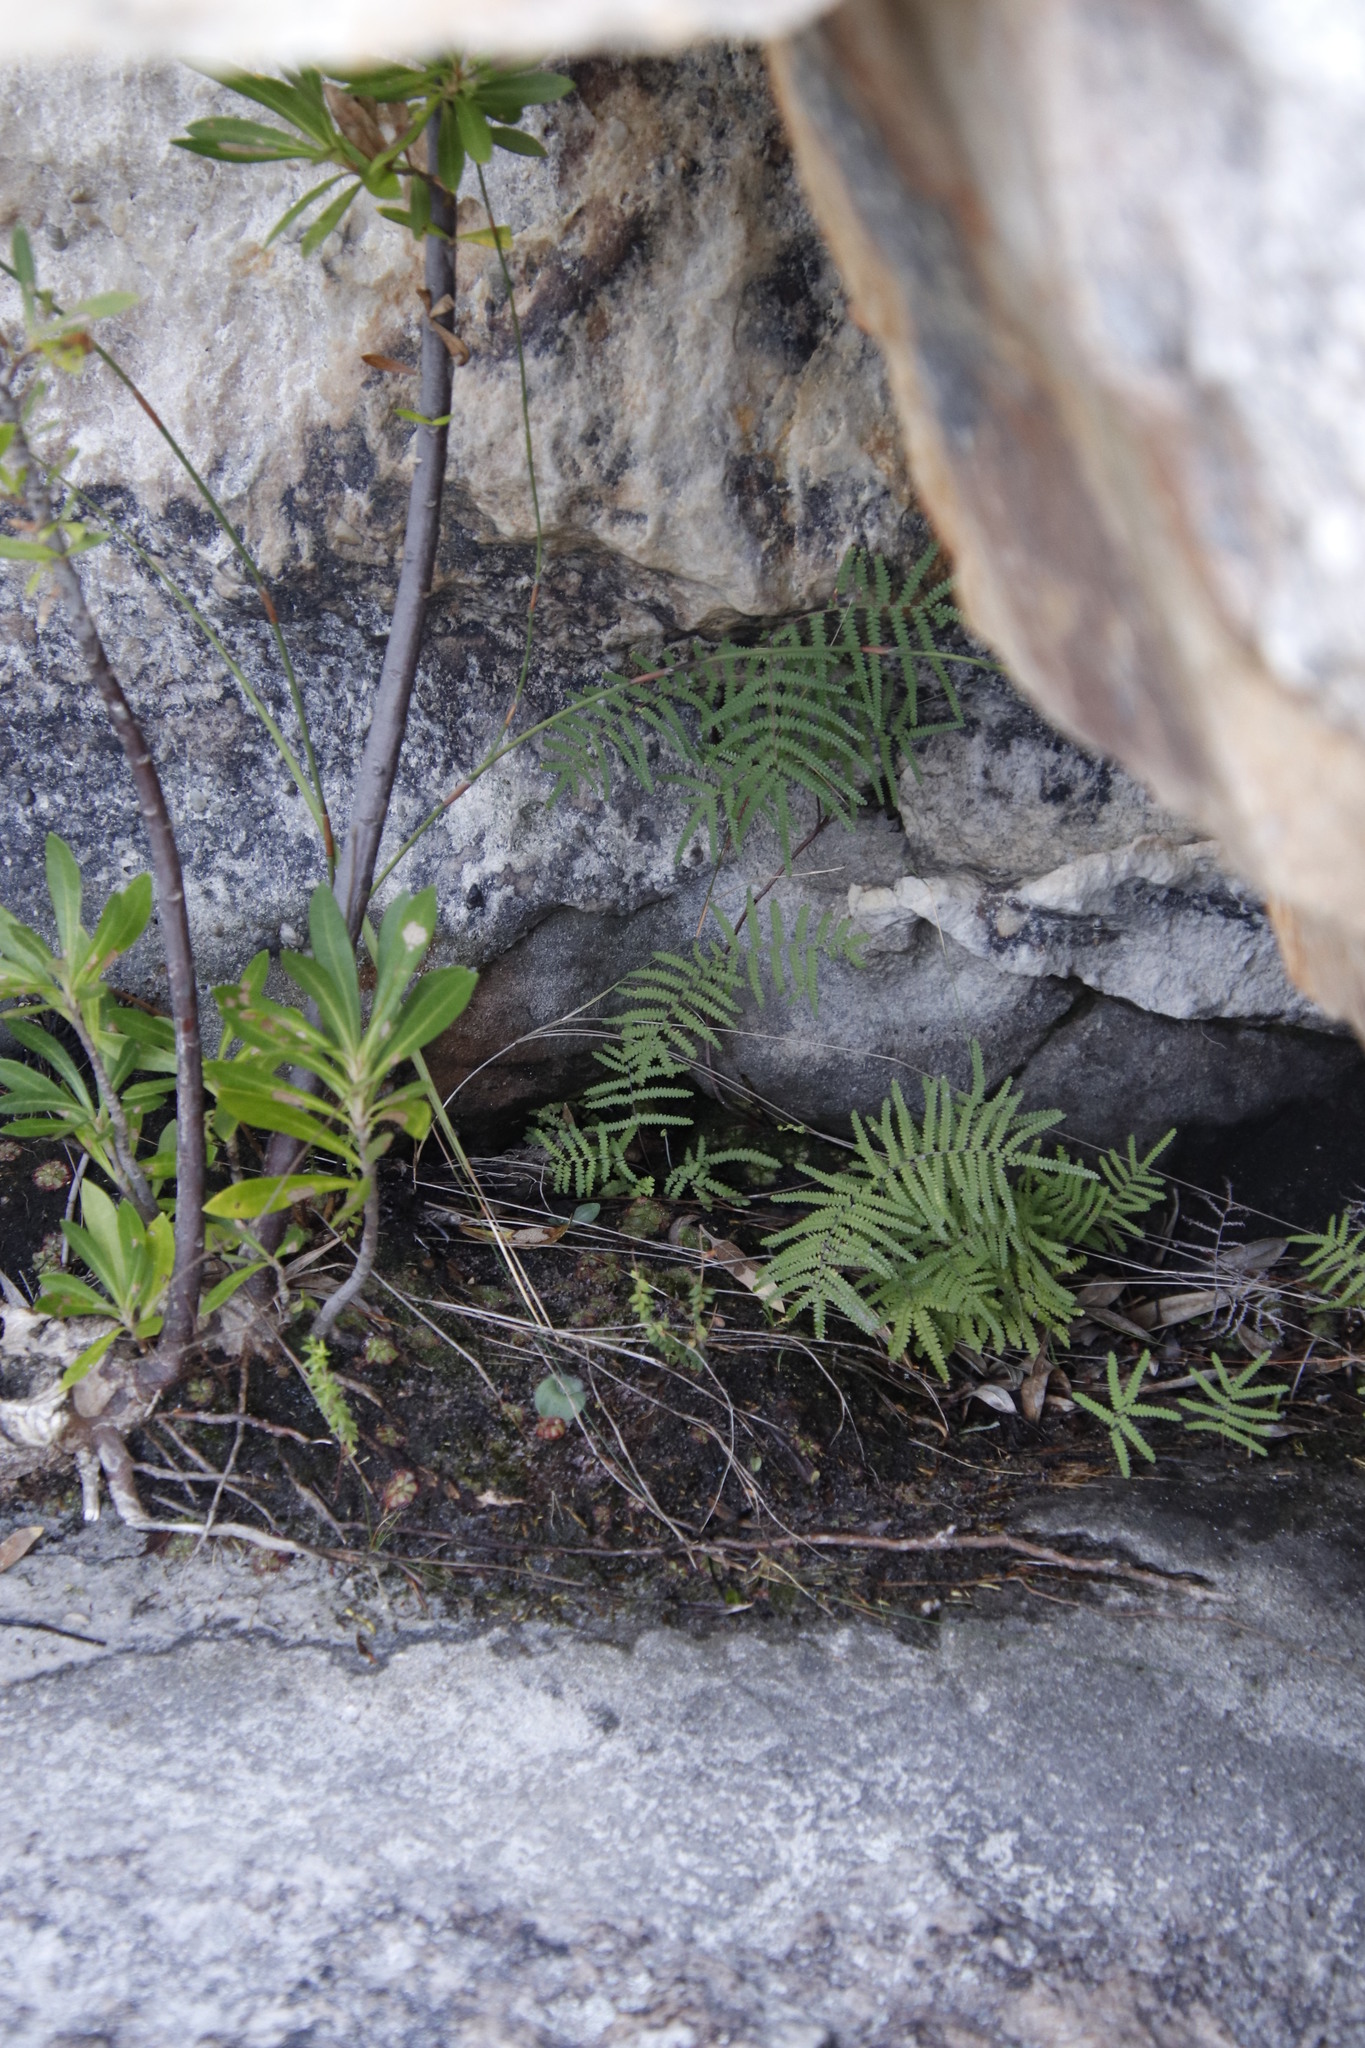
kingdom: Plantae
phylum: Tracheophyta
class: Polypodiopsida
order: Gleicheniales
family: Gleicheniaceae
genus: Gleichenia
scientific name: Gleichenia polypodioides
